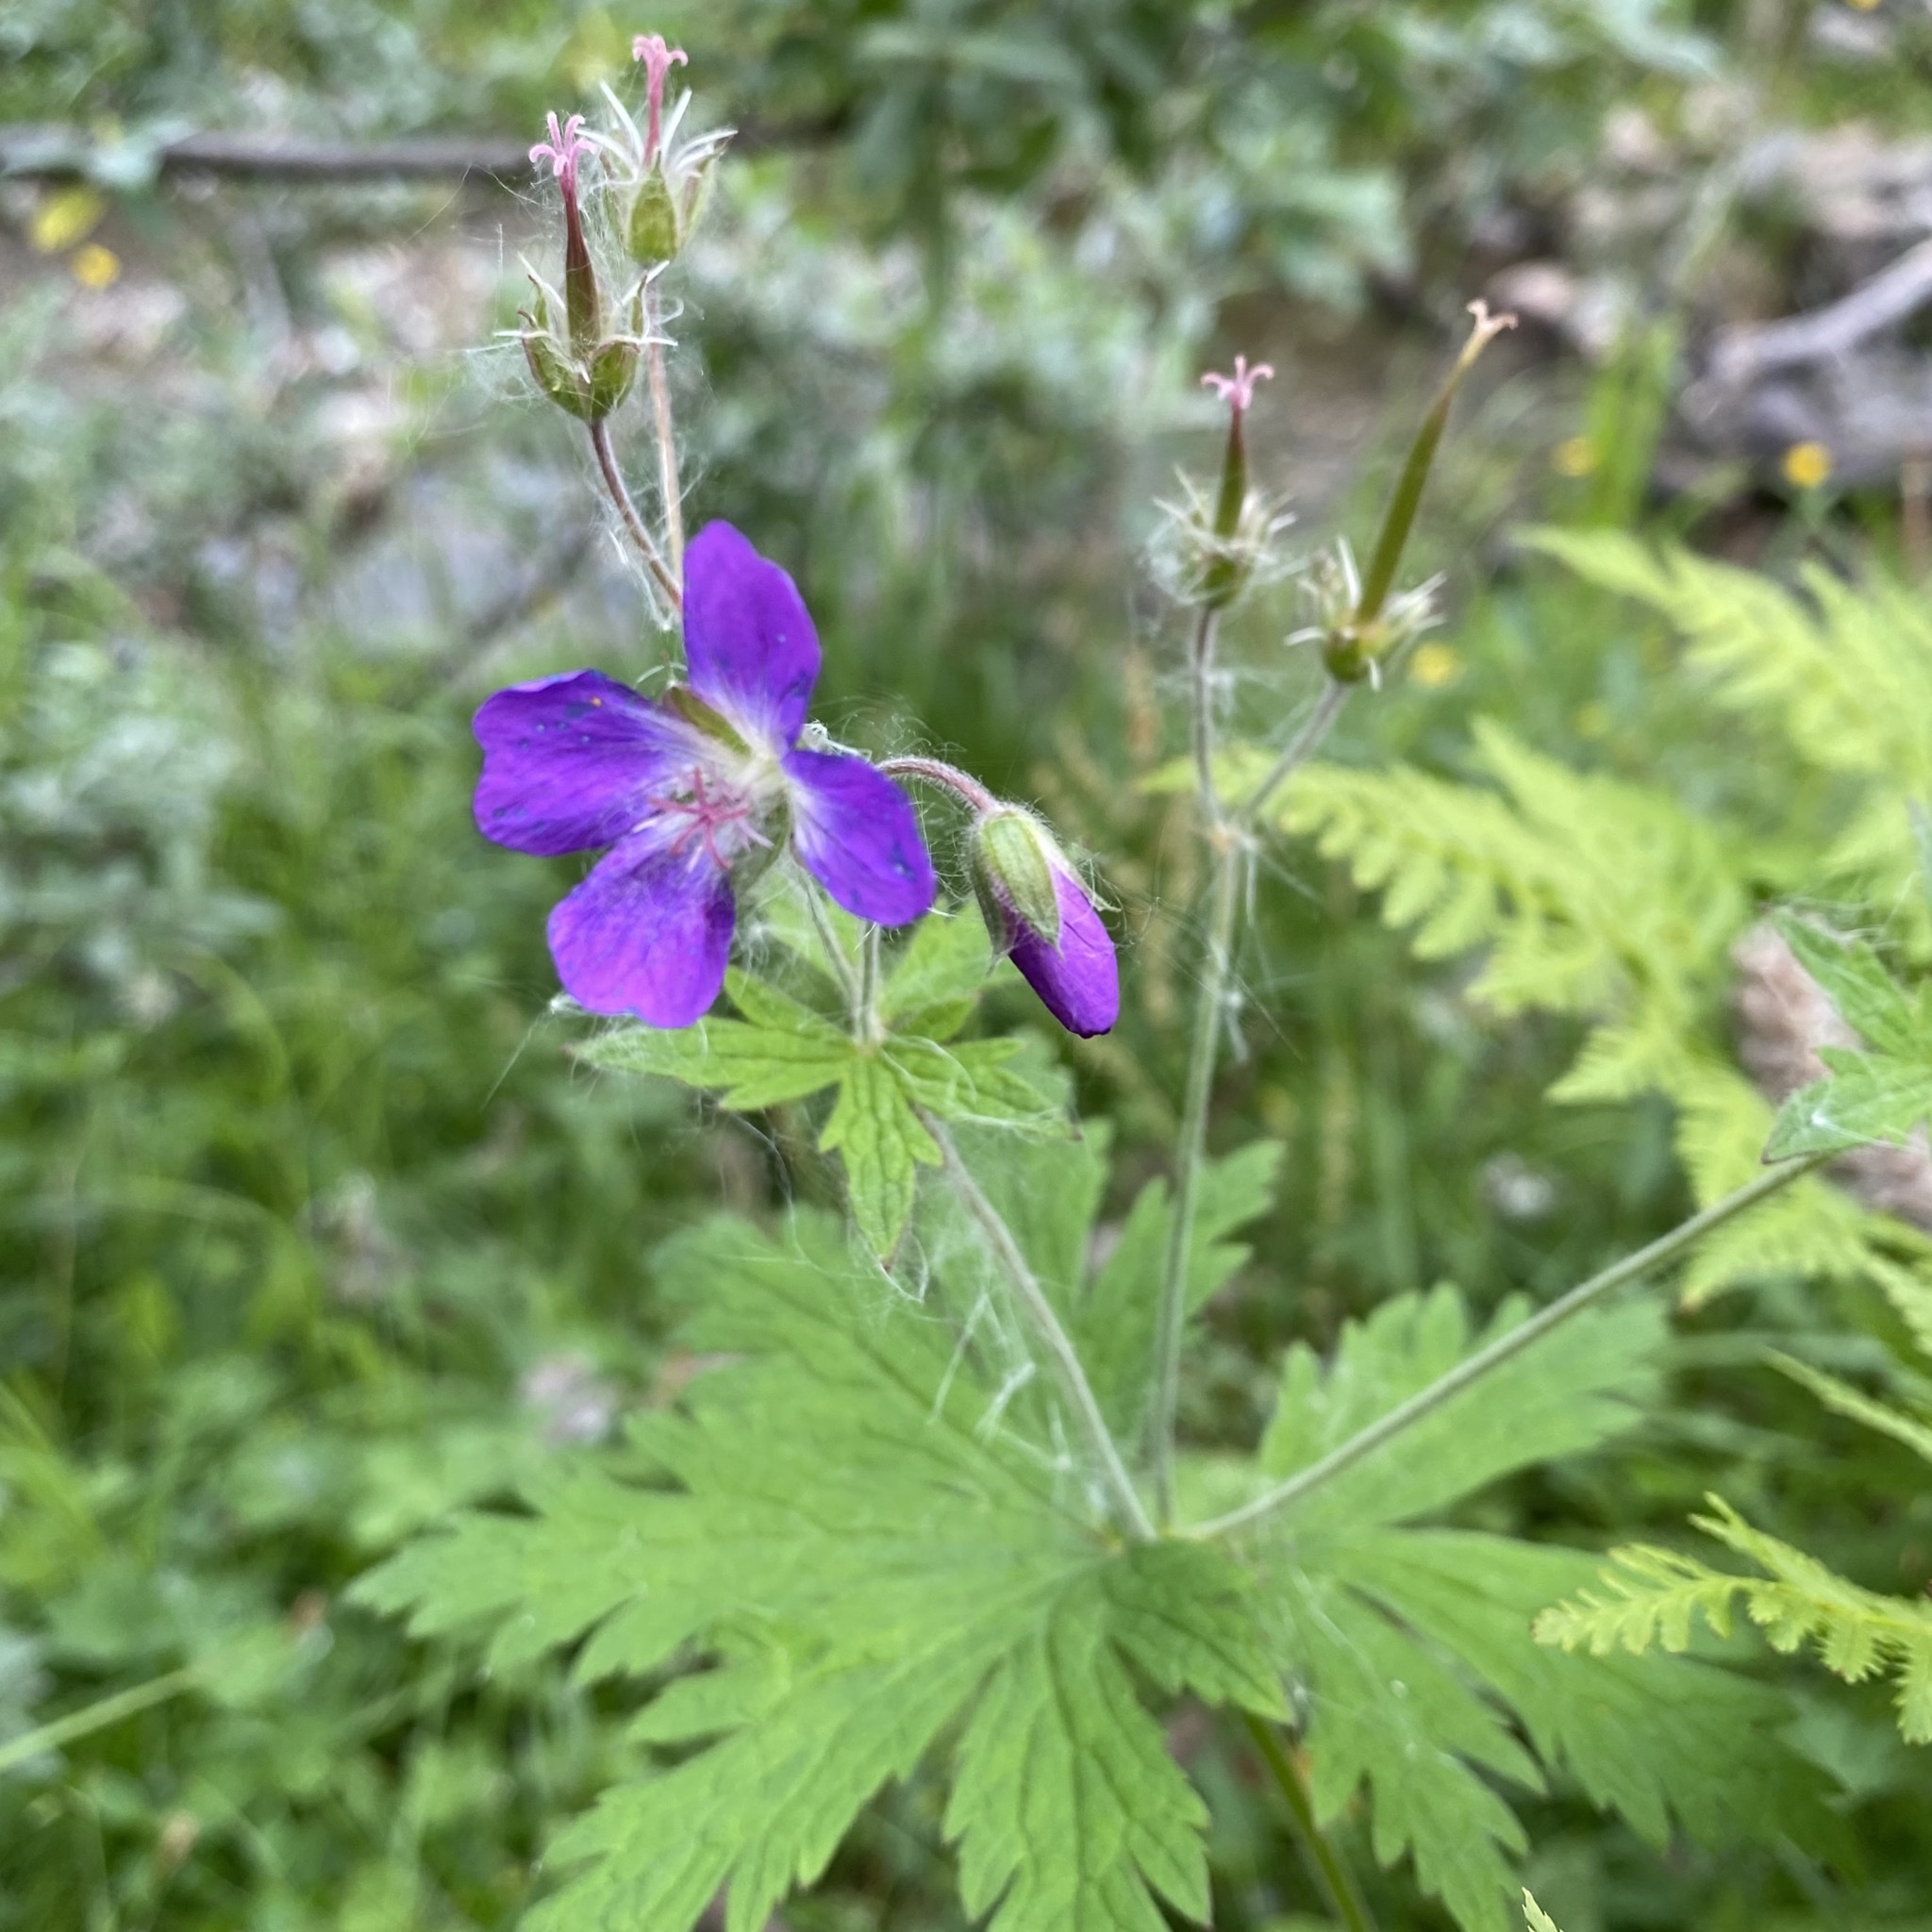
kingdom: Plantae
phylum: Tracheophyta
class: Magnoliopsida
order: Geraniales
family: Geraniaceae
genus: Geranium
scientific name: Geranium sylvaticum
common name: Wood crane's-bill
